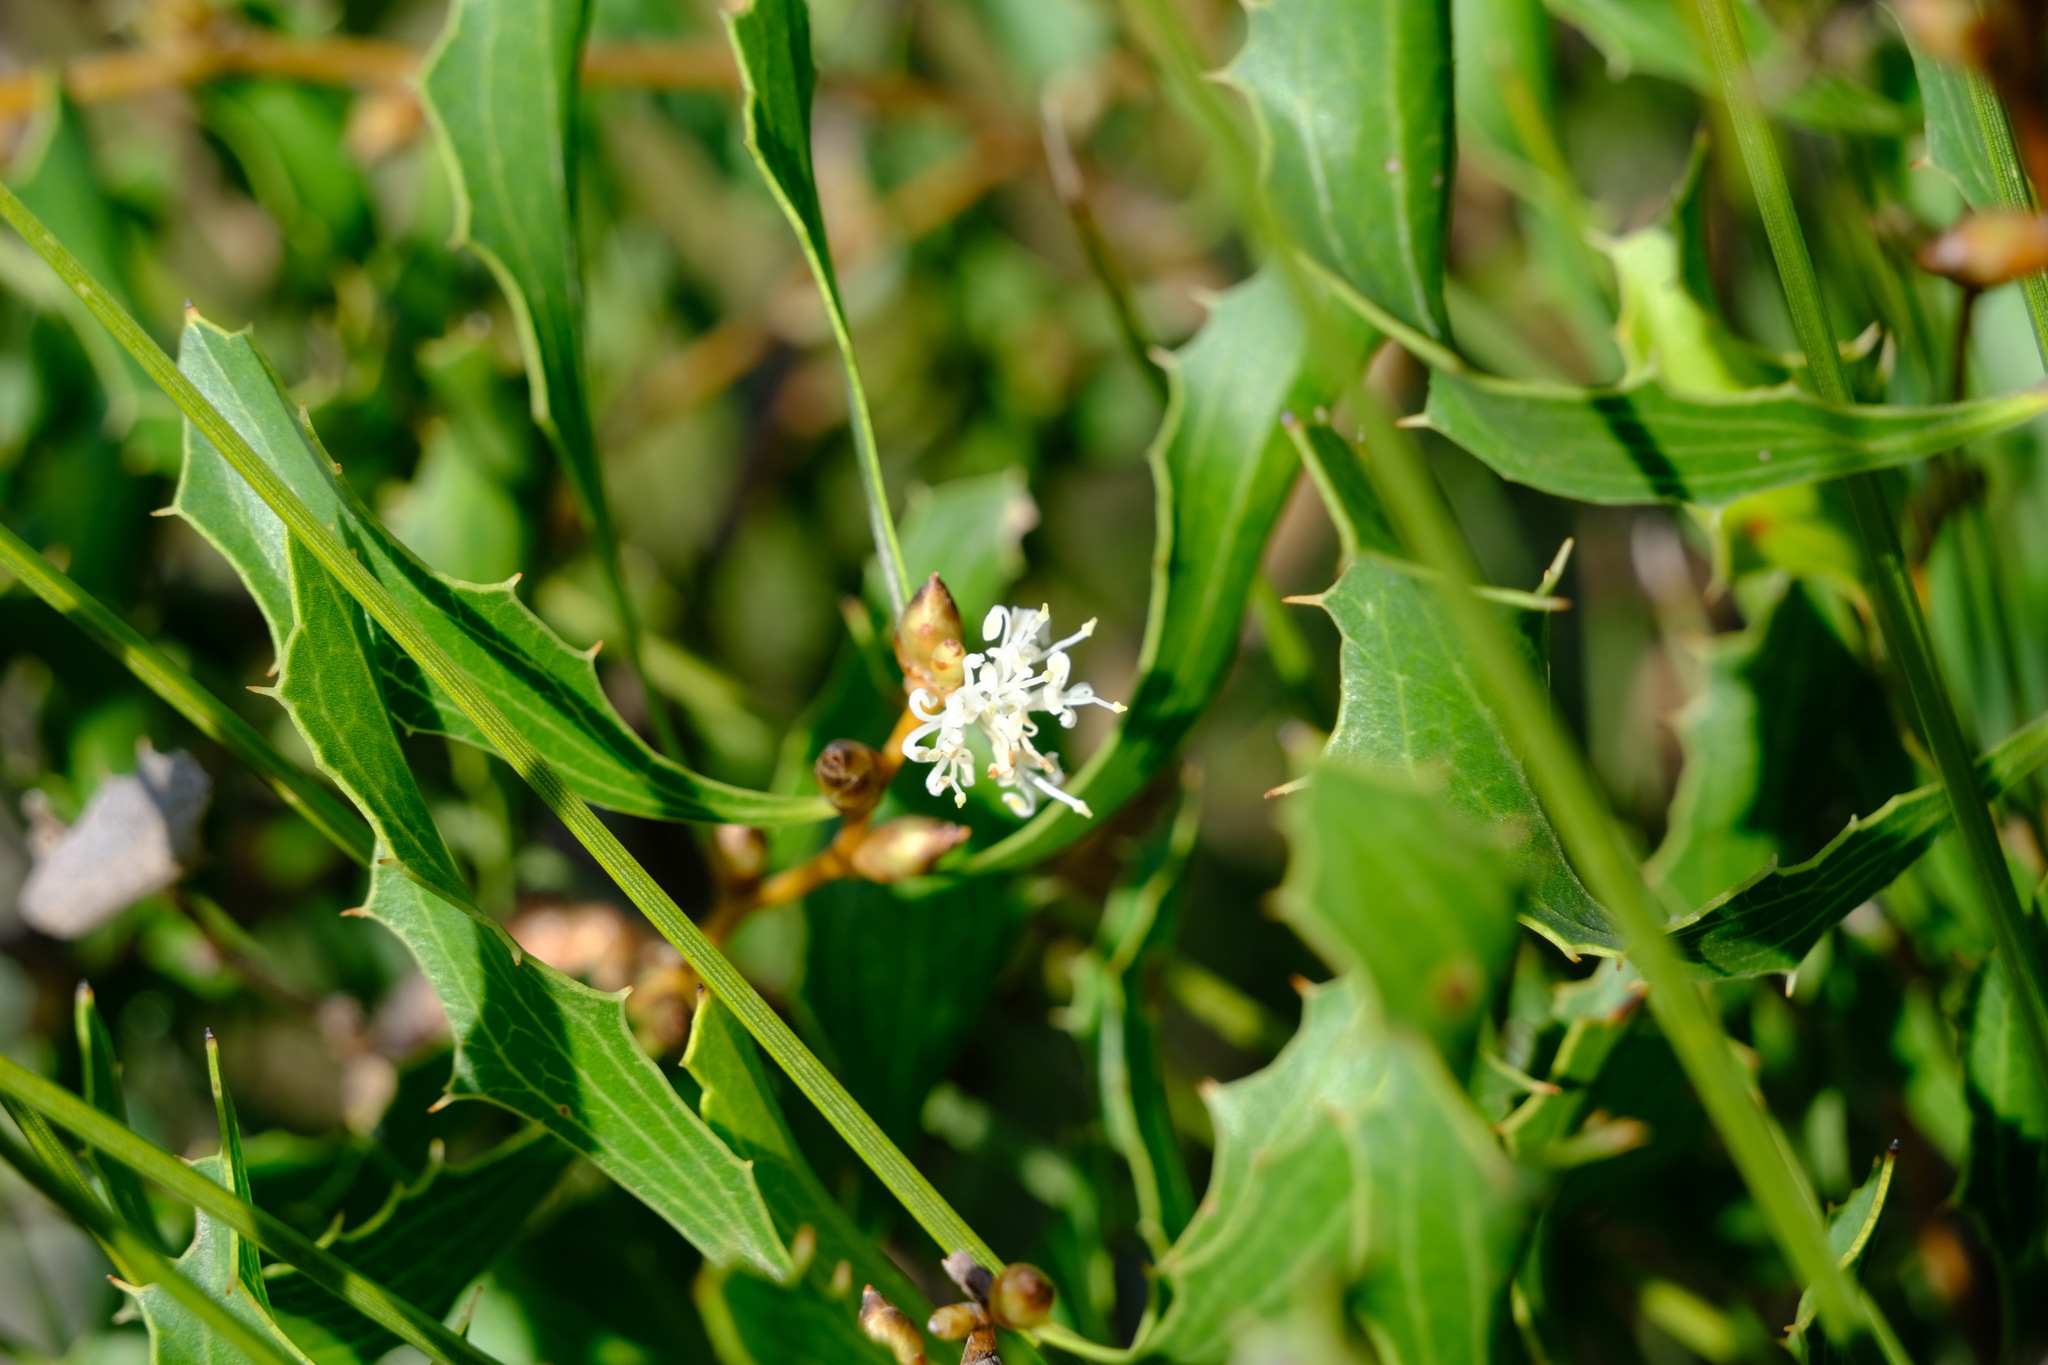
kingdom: Plantae
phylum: Tracheophyta
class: Magnoliopsida
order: Proteales
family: Proteaceae
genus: Hakea
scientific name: Hakea anadenia
